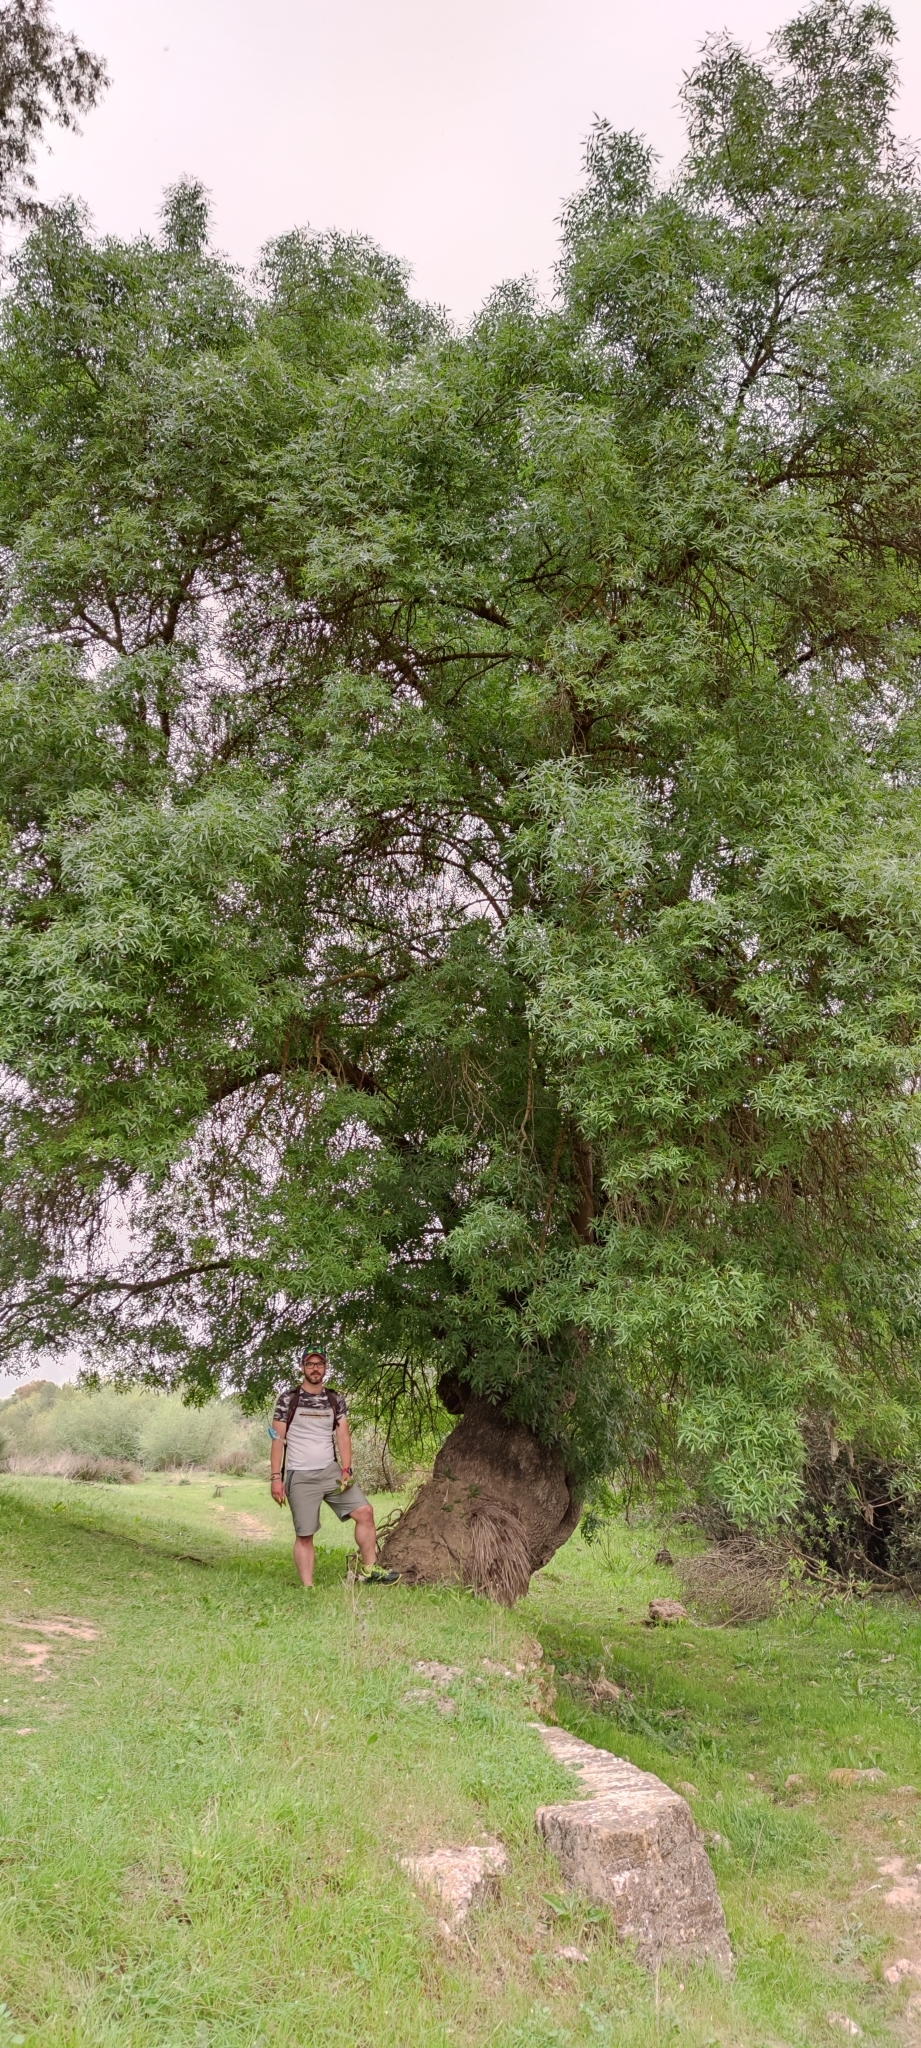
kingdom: Plantae
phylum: Tracheophyta
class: Magnoliopsida
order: Lamiales
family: Oleaceae
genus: Fraxinus
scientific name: Fraxinus angustifolia
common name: Narrow-leafed ash
